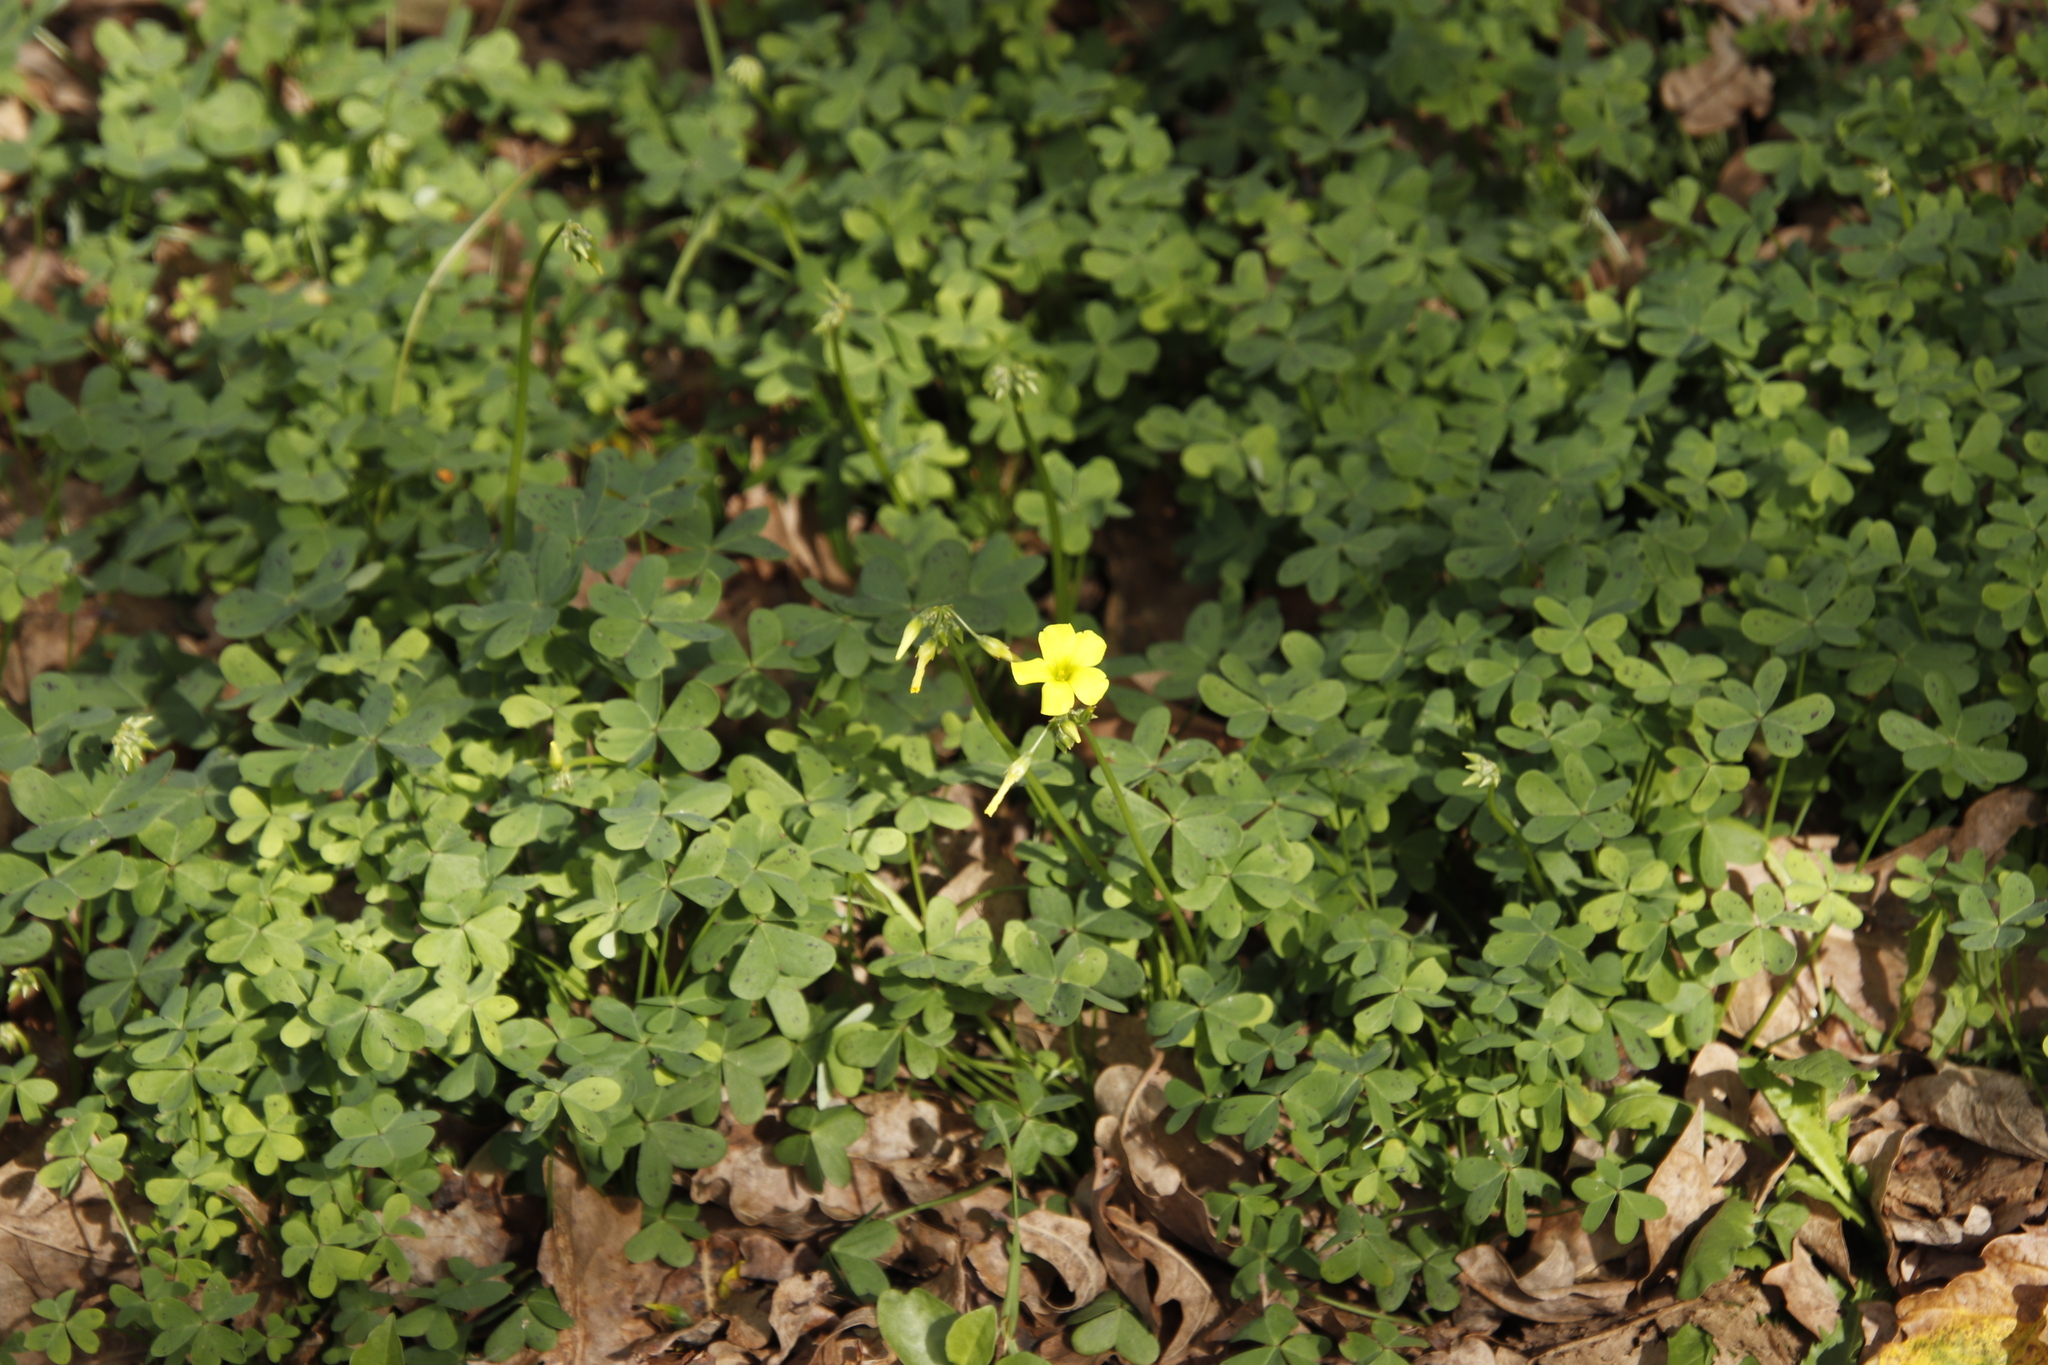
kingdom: Plantae
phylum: Tracheophyta
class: Magnoliopsida
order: Oxalidales
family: Oxalidaceae
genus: Oxalis
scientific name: Oxalis pes-caprae
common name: Bermuda-buttercup
